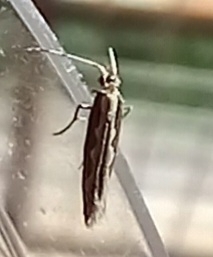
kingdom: Animalia
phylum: Arthropoda
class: Insecta
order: Lepidoptera
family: Plutellidae
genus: Plutella
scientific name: Plutella xylostella
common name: Diamond-back moth
